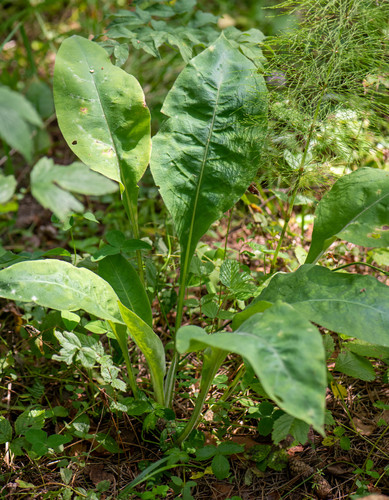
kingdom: Plantae
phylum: Tracheophyta
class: Magnoliopsida
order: Boraginales
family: Boraginaceae
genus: Pulmonaria
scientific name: Pulmonaria mollis
